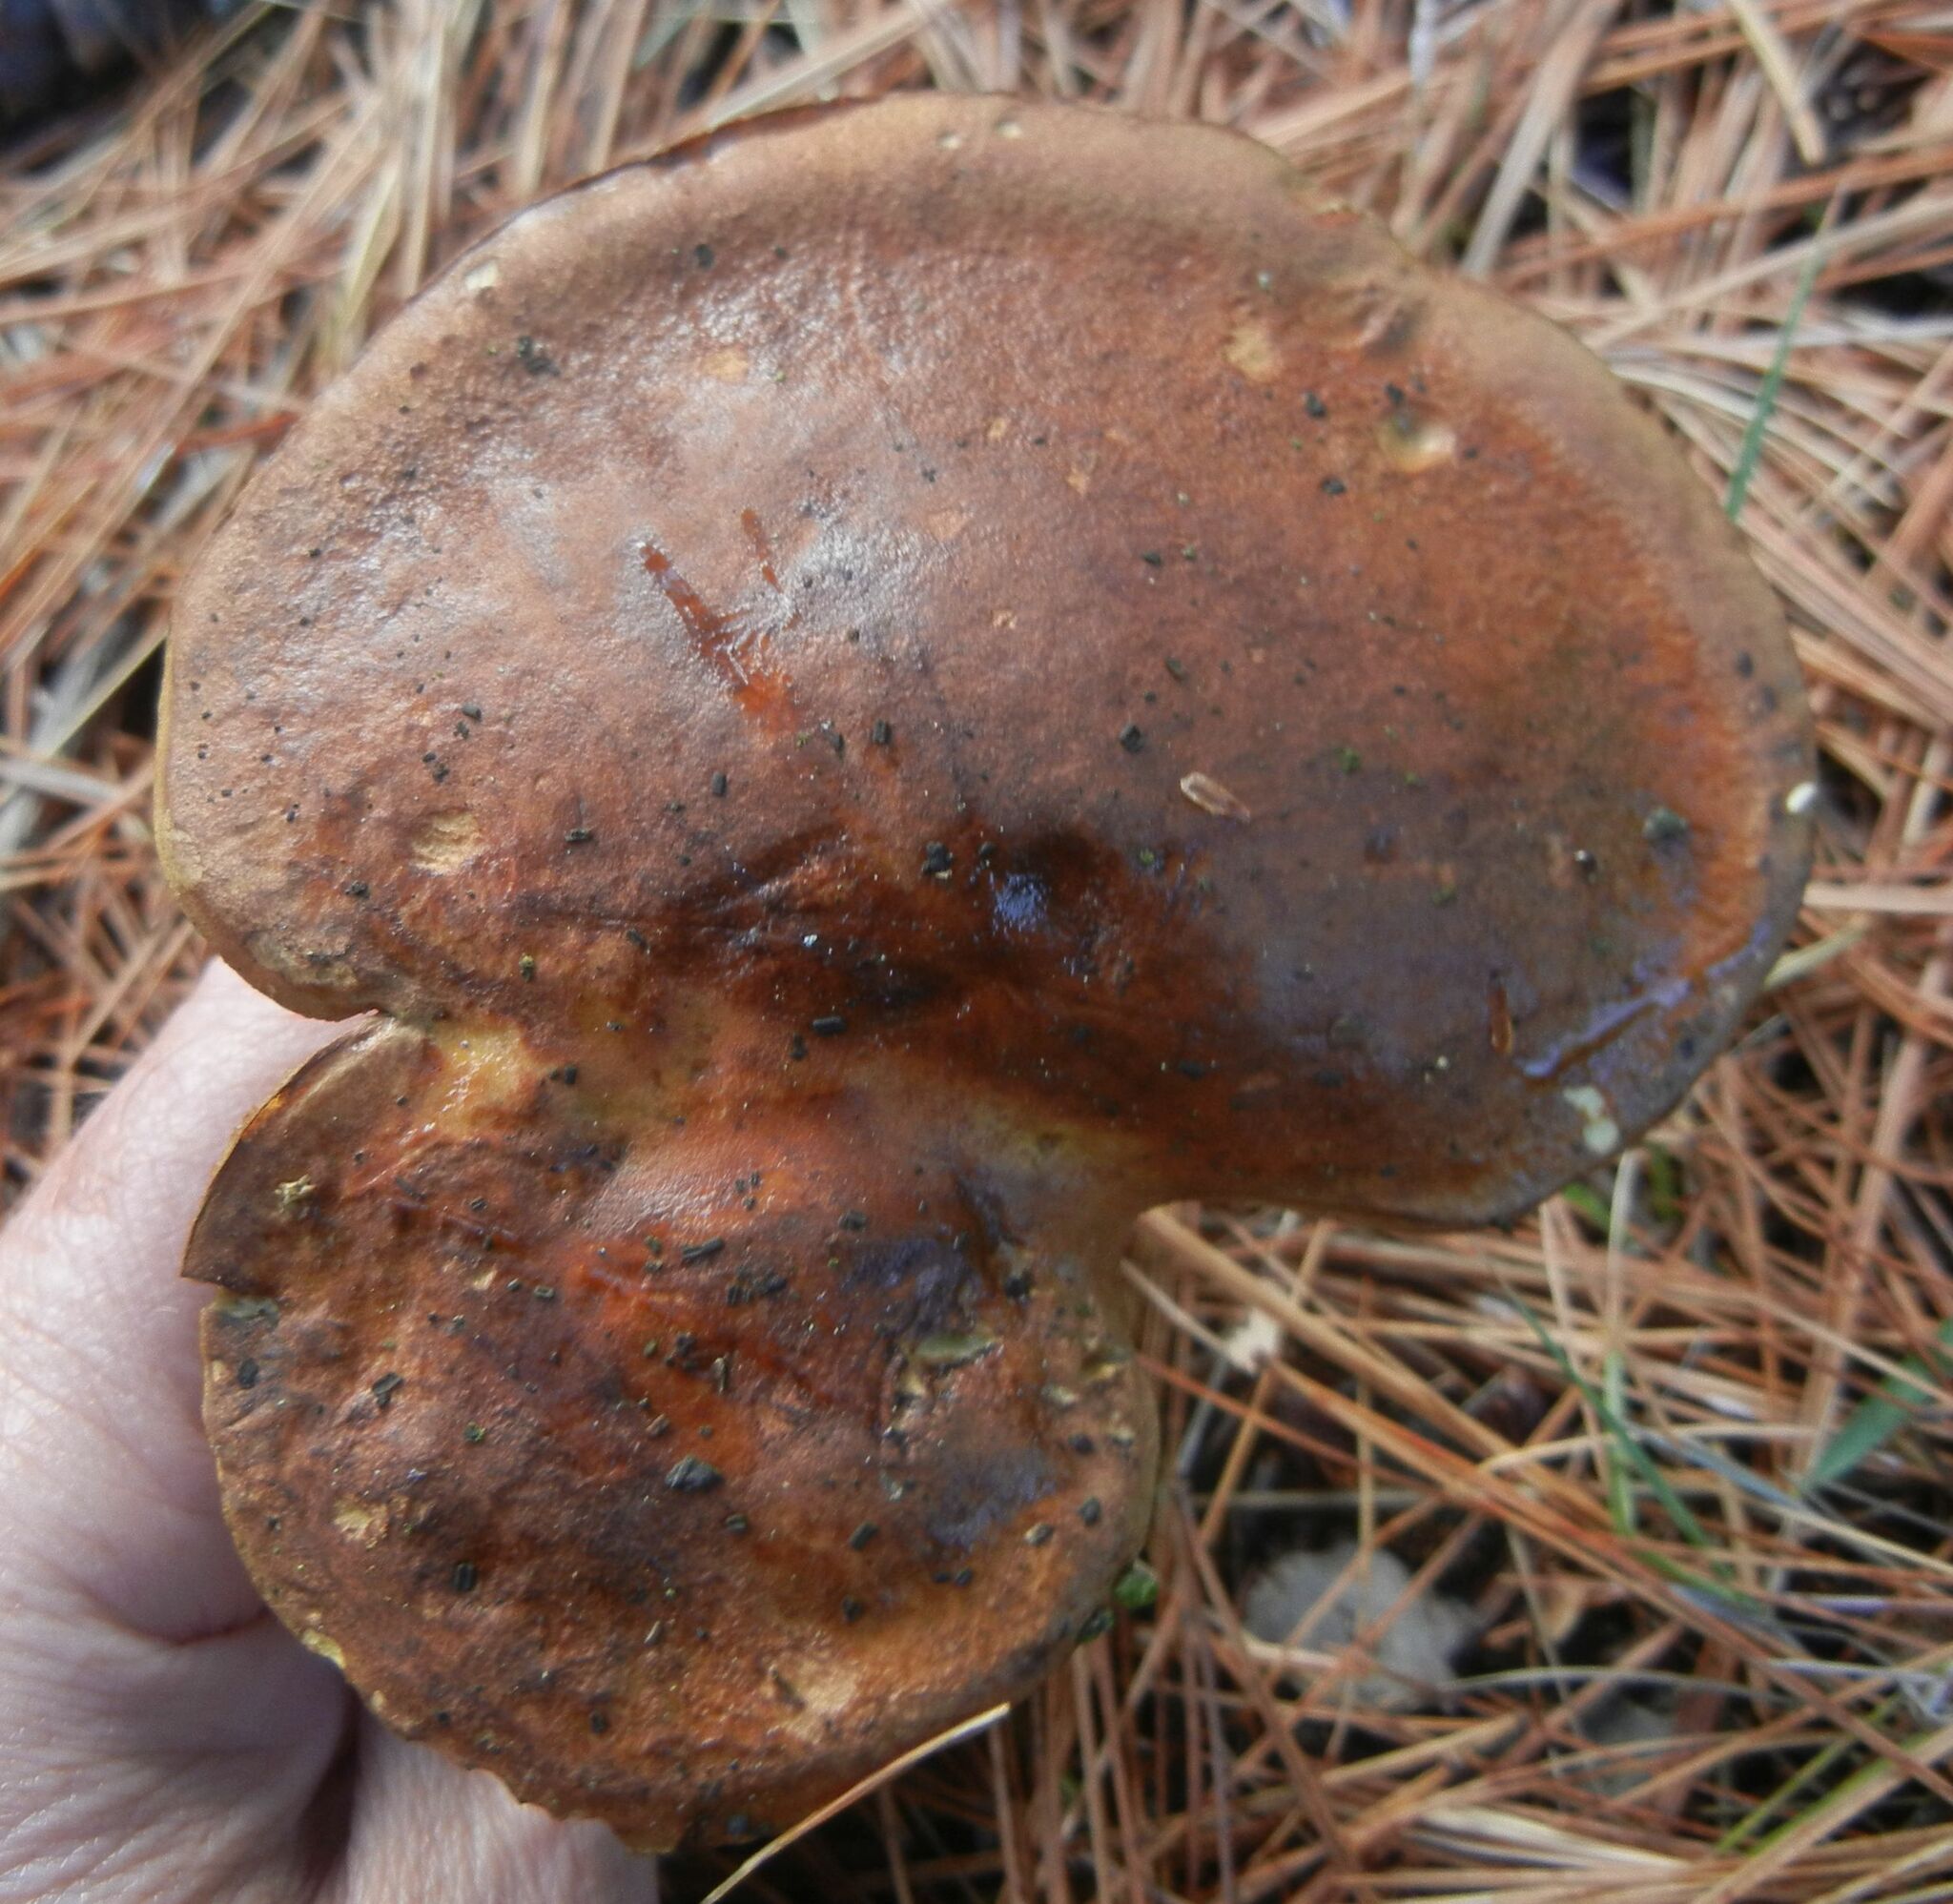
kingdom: Fungi
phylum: Basidiomycota
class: Agaricomycetes
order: Boletales
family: Boletaceae
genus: Imleria
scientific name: Imleria badia
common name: Bay bolete
